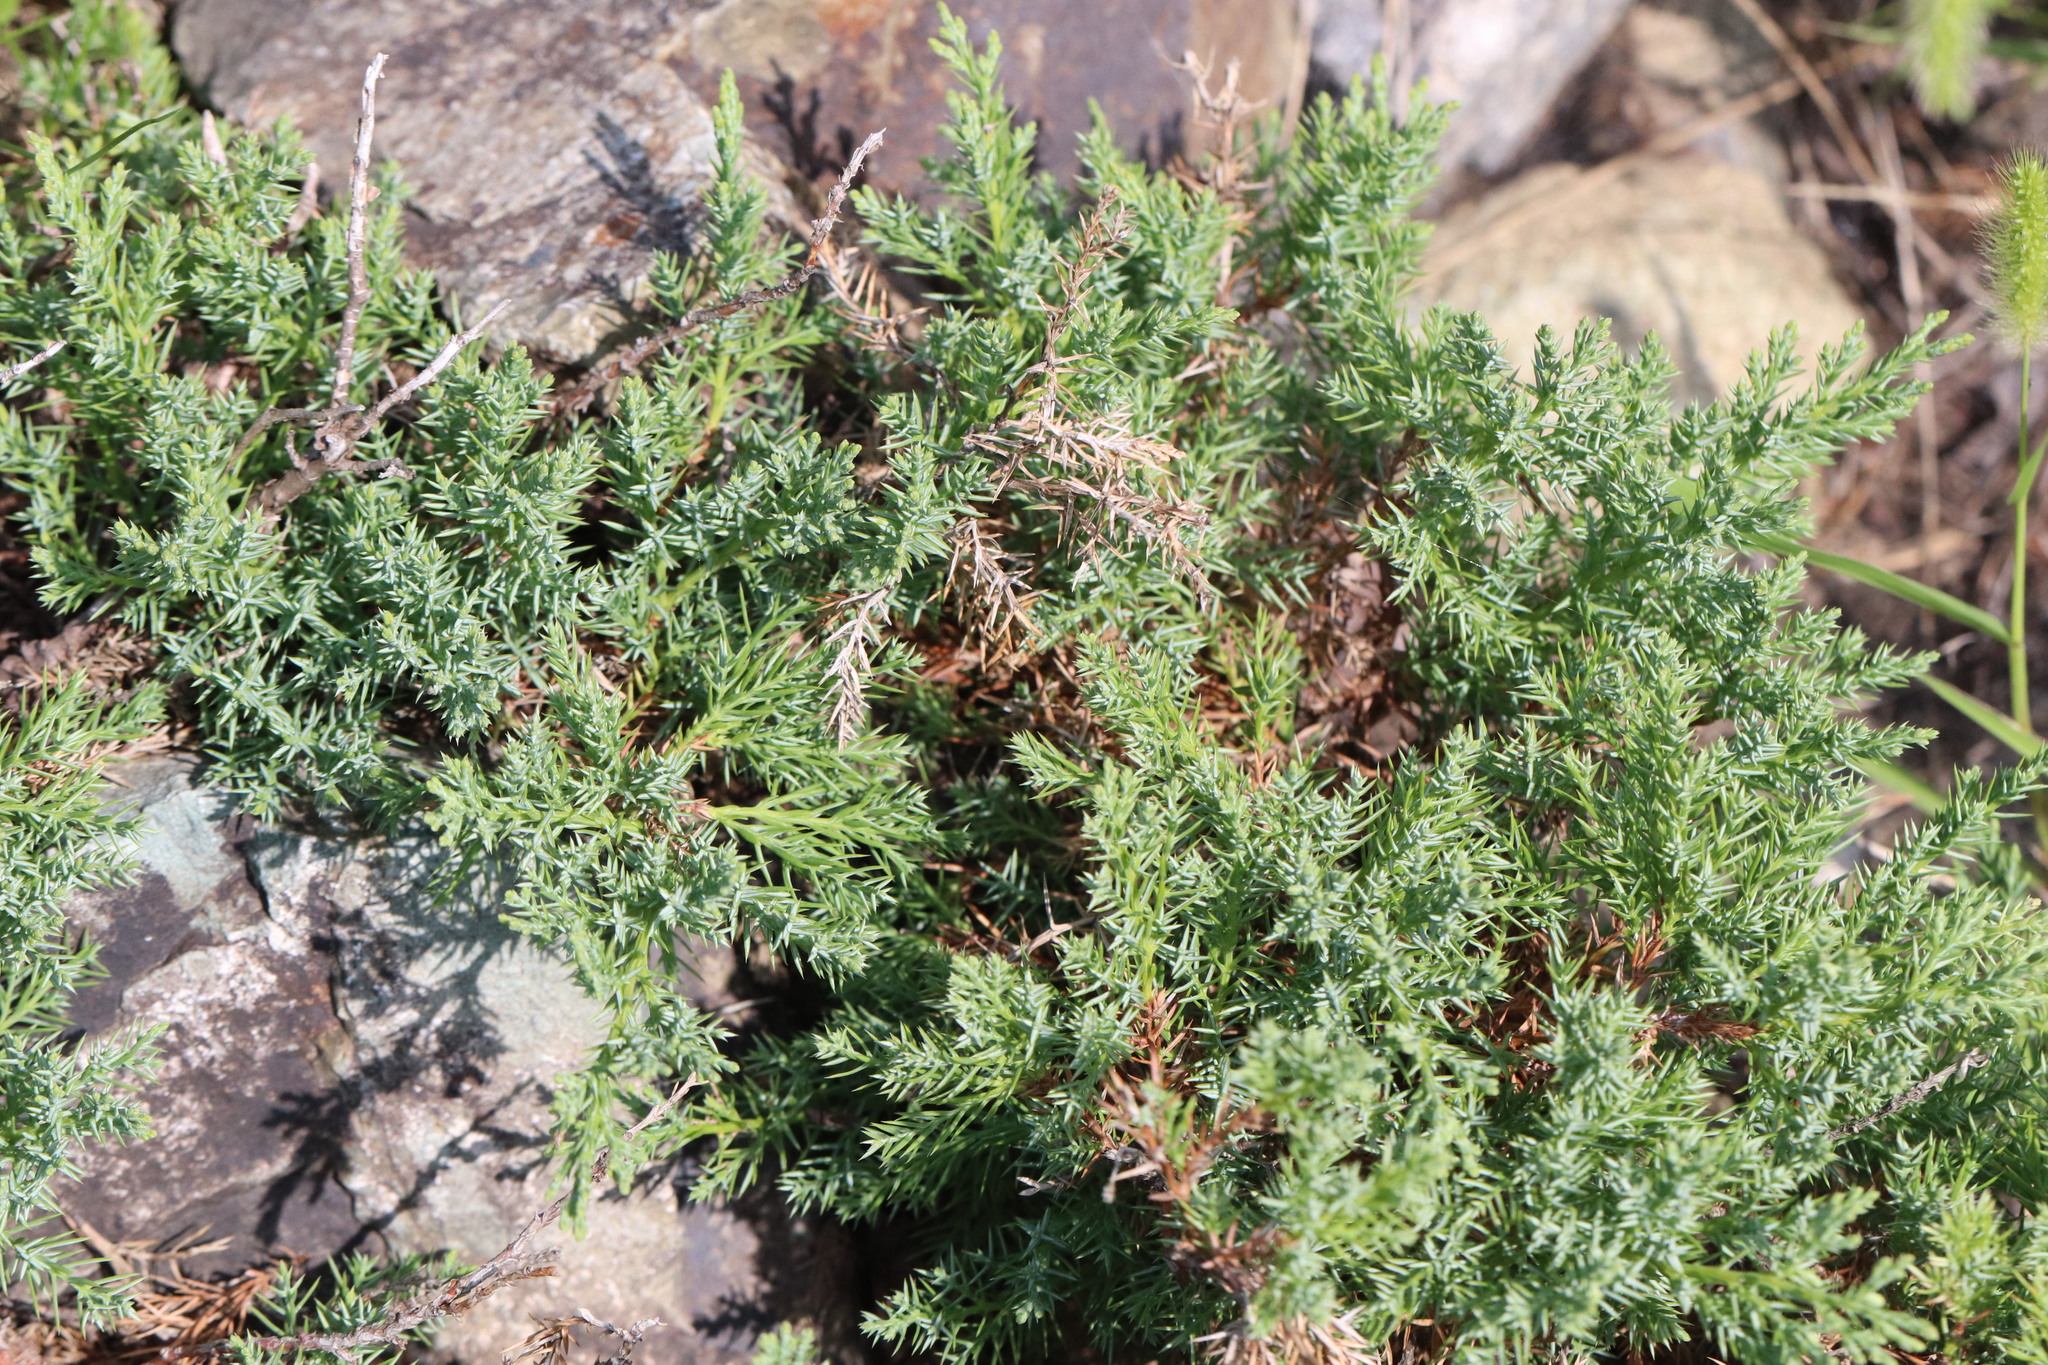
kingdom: Plantae
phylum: Tracheophyta
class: Pinopsida
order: Pinales
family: Cupressaceae
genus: Juniperus
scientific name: Juniperus sabina
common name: Savin
